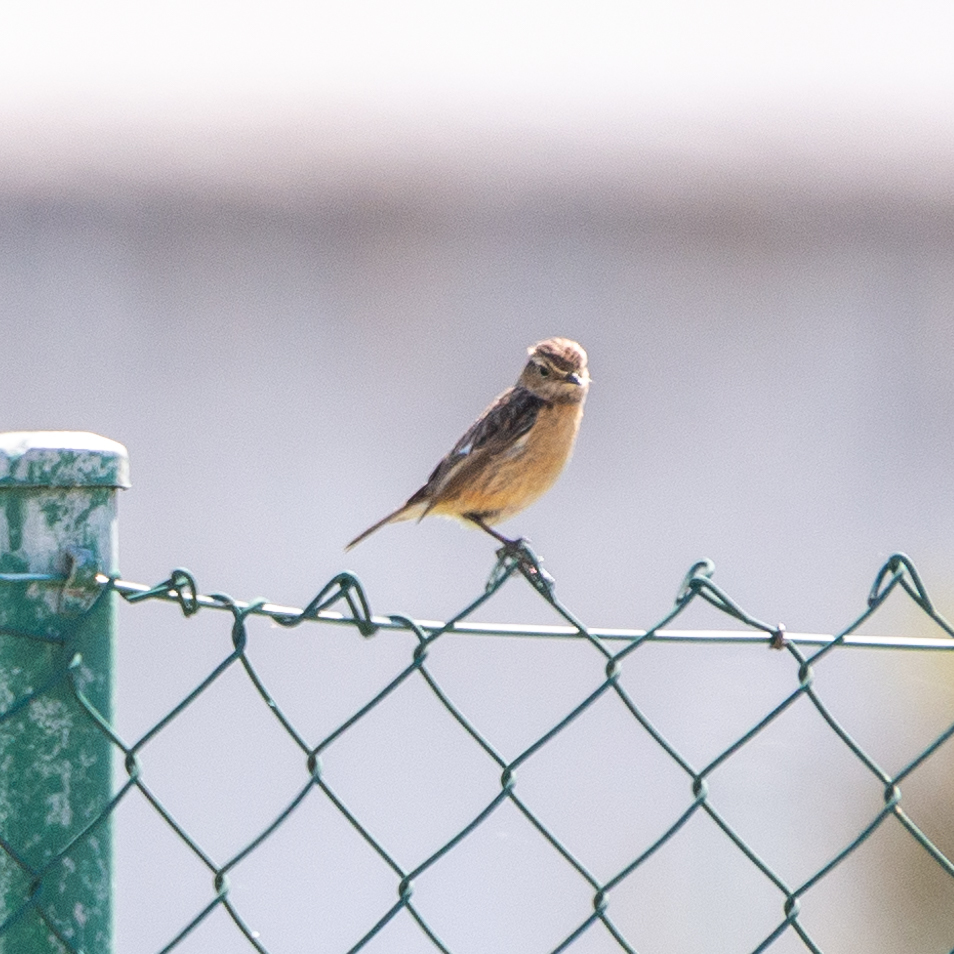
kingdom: Animalia
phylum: Chordata
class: Aves
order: Passeriformes
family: Muscicapidae
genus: Saxicola
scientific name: Saxicola rubicola
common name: European stonechat
